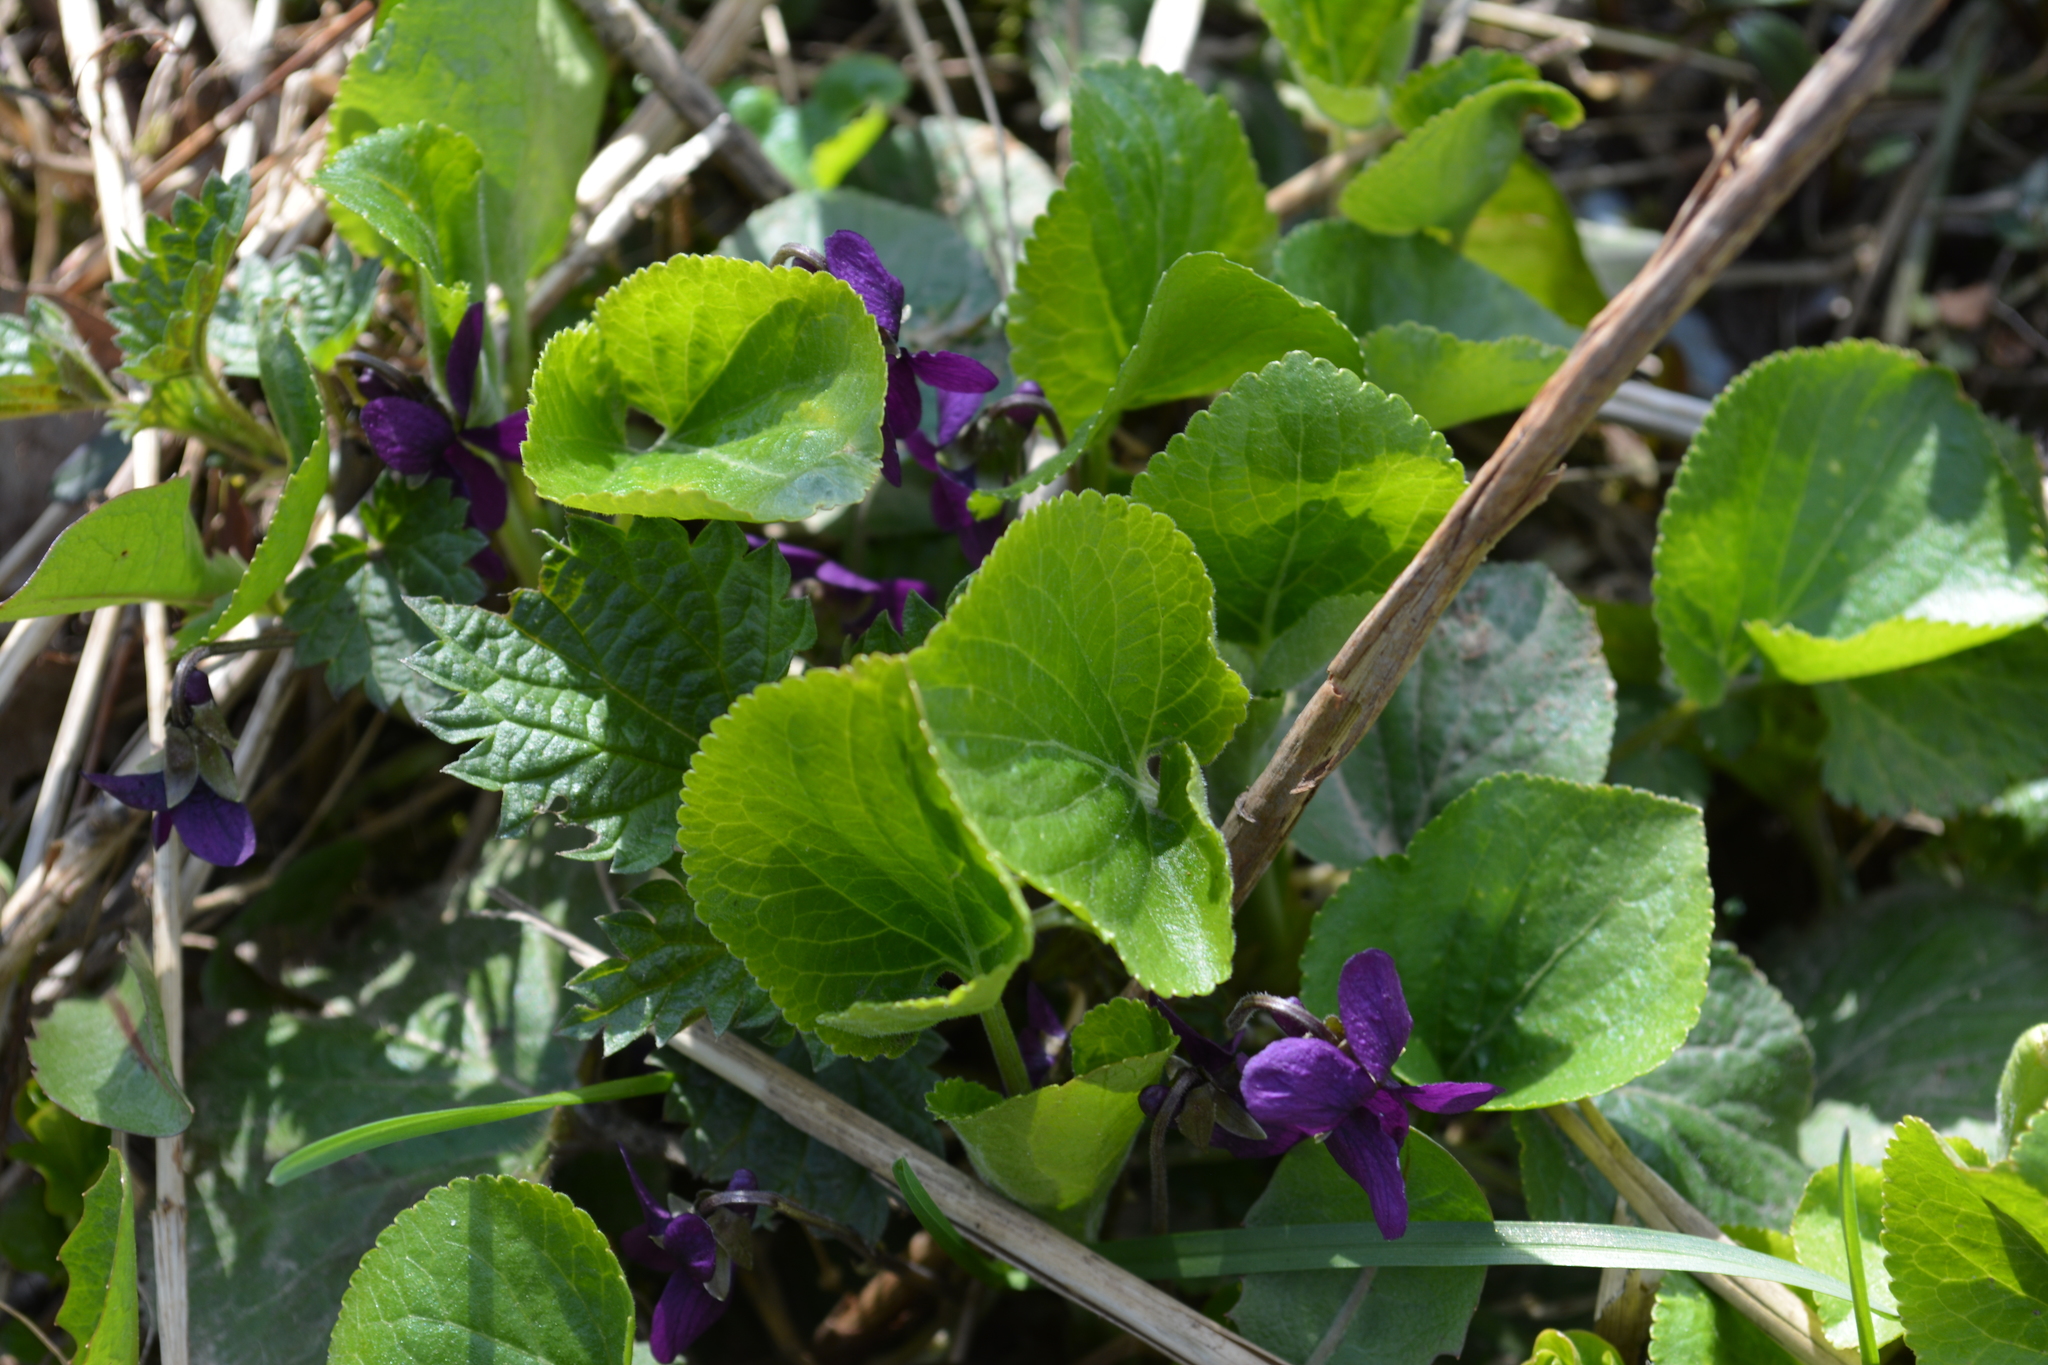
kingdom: Plantae
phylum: Tracheophyta
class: Magnoliopsida
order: Malpighiales
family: Violaceae
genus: Viola
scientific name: Viola odorata
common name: Sweet violet
